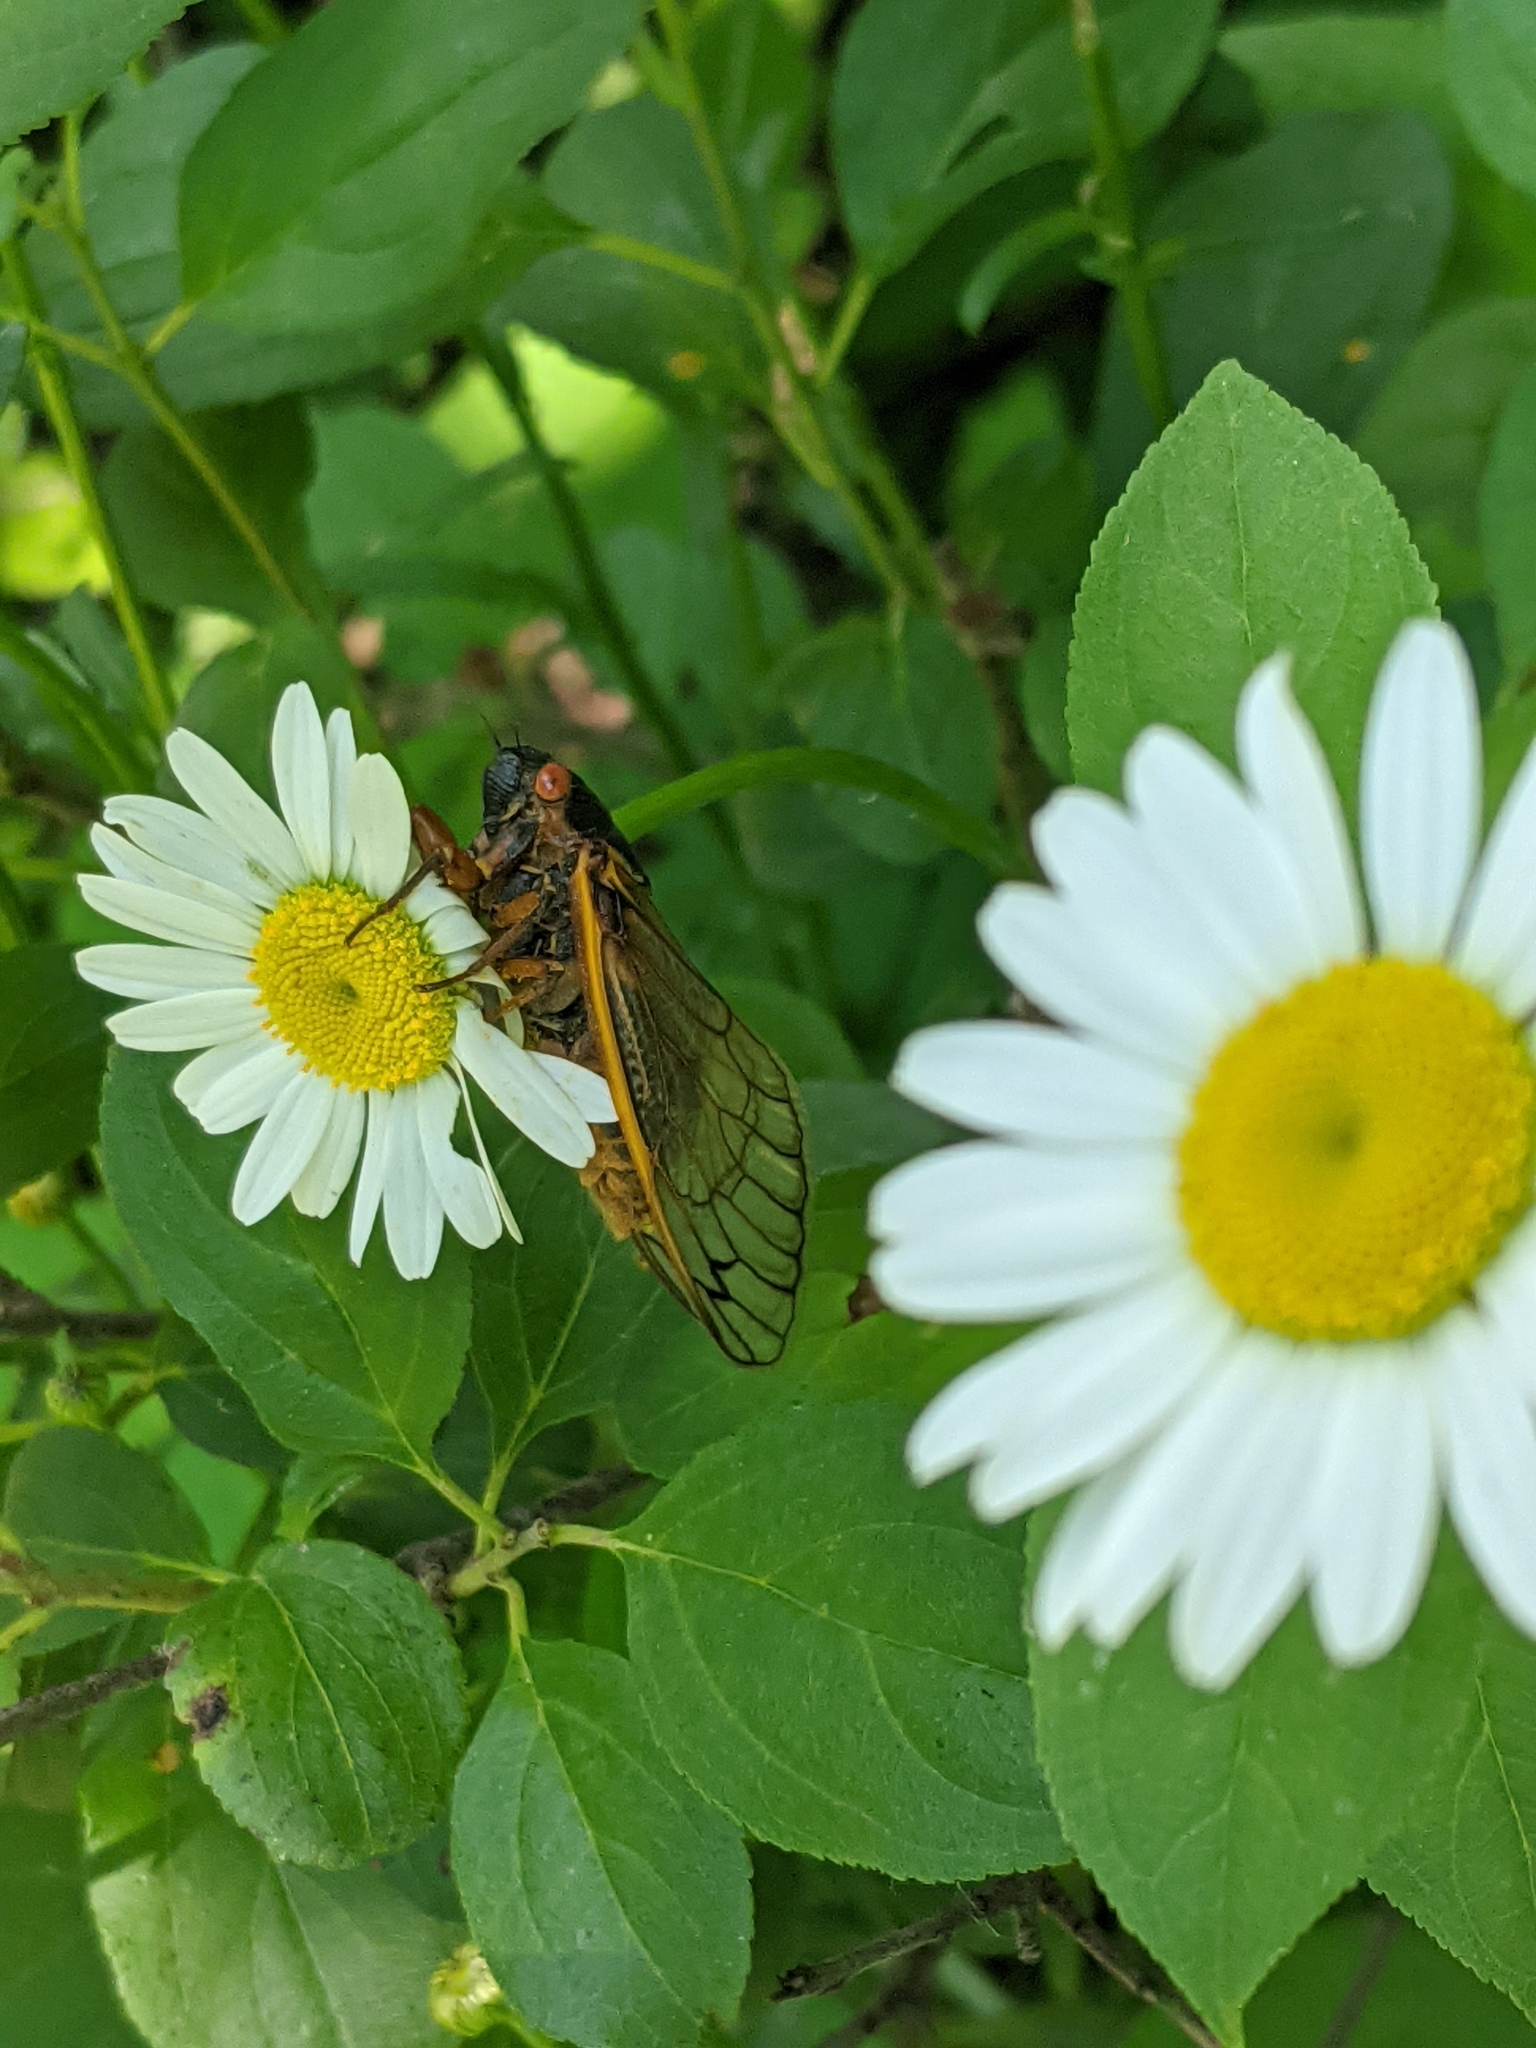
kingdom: Animalia
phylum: Arthropoda
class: Insecta
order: Hemiptera
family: Cicadidae
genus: Magicicada
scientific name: Magicicada septendecim
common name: Periodical cicada
